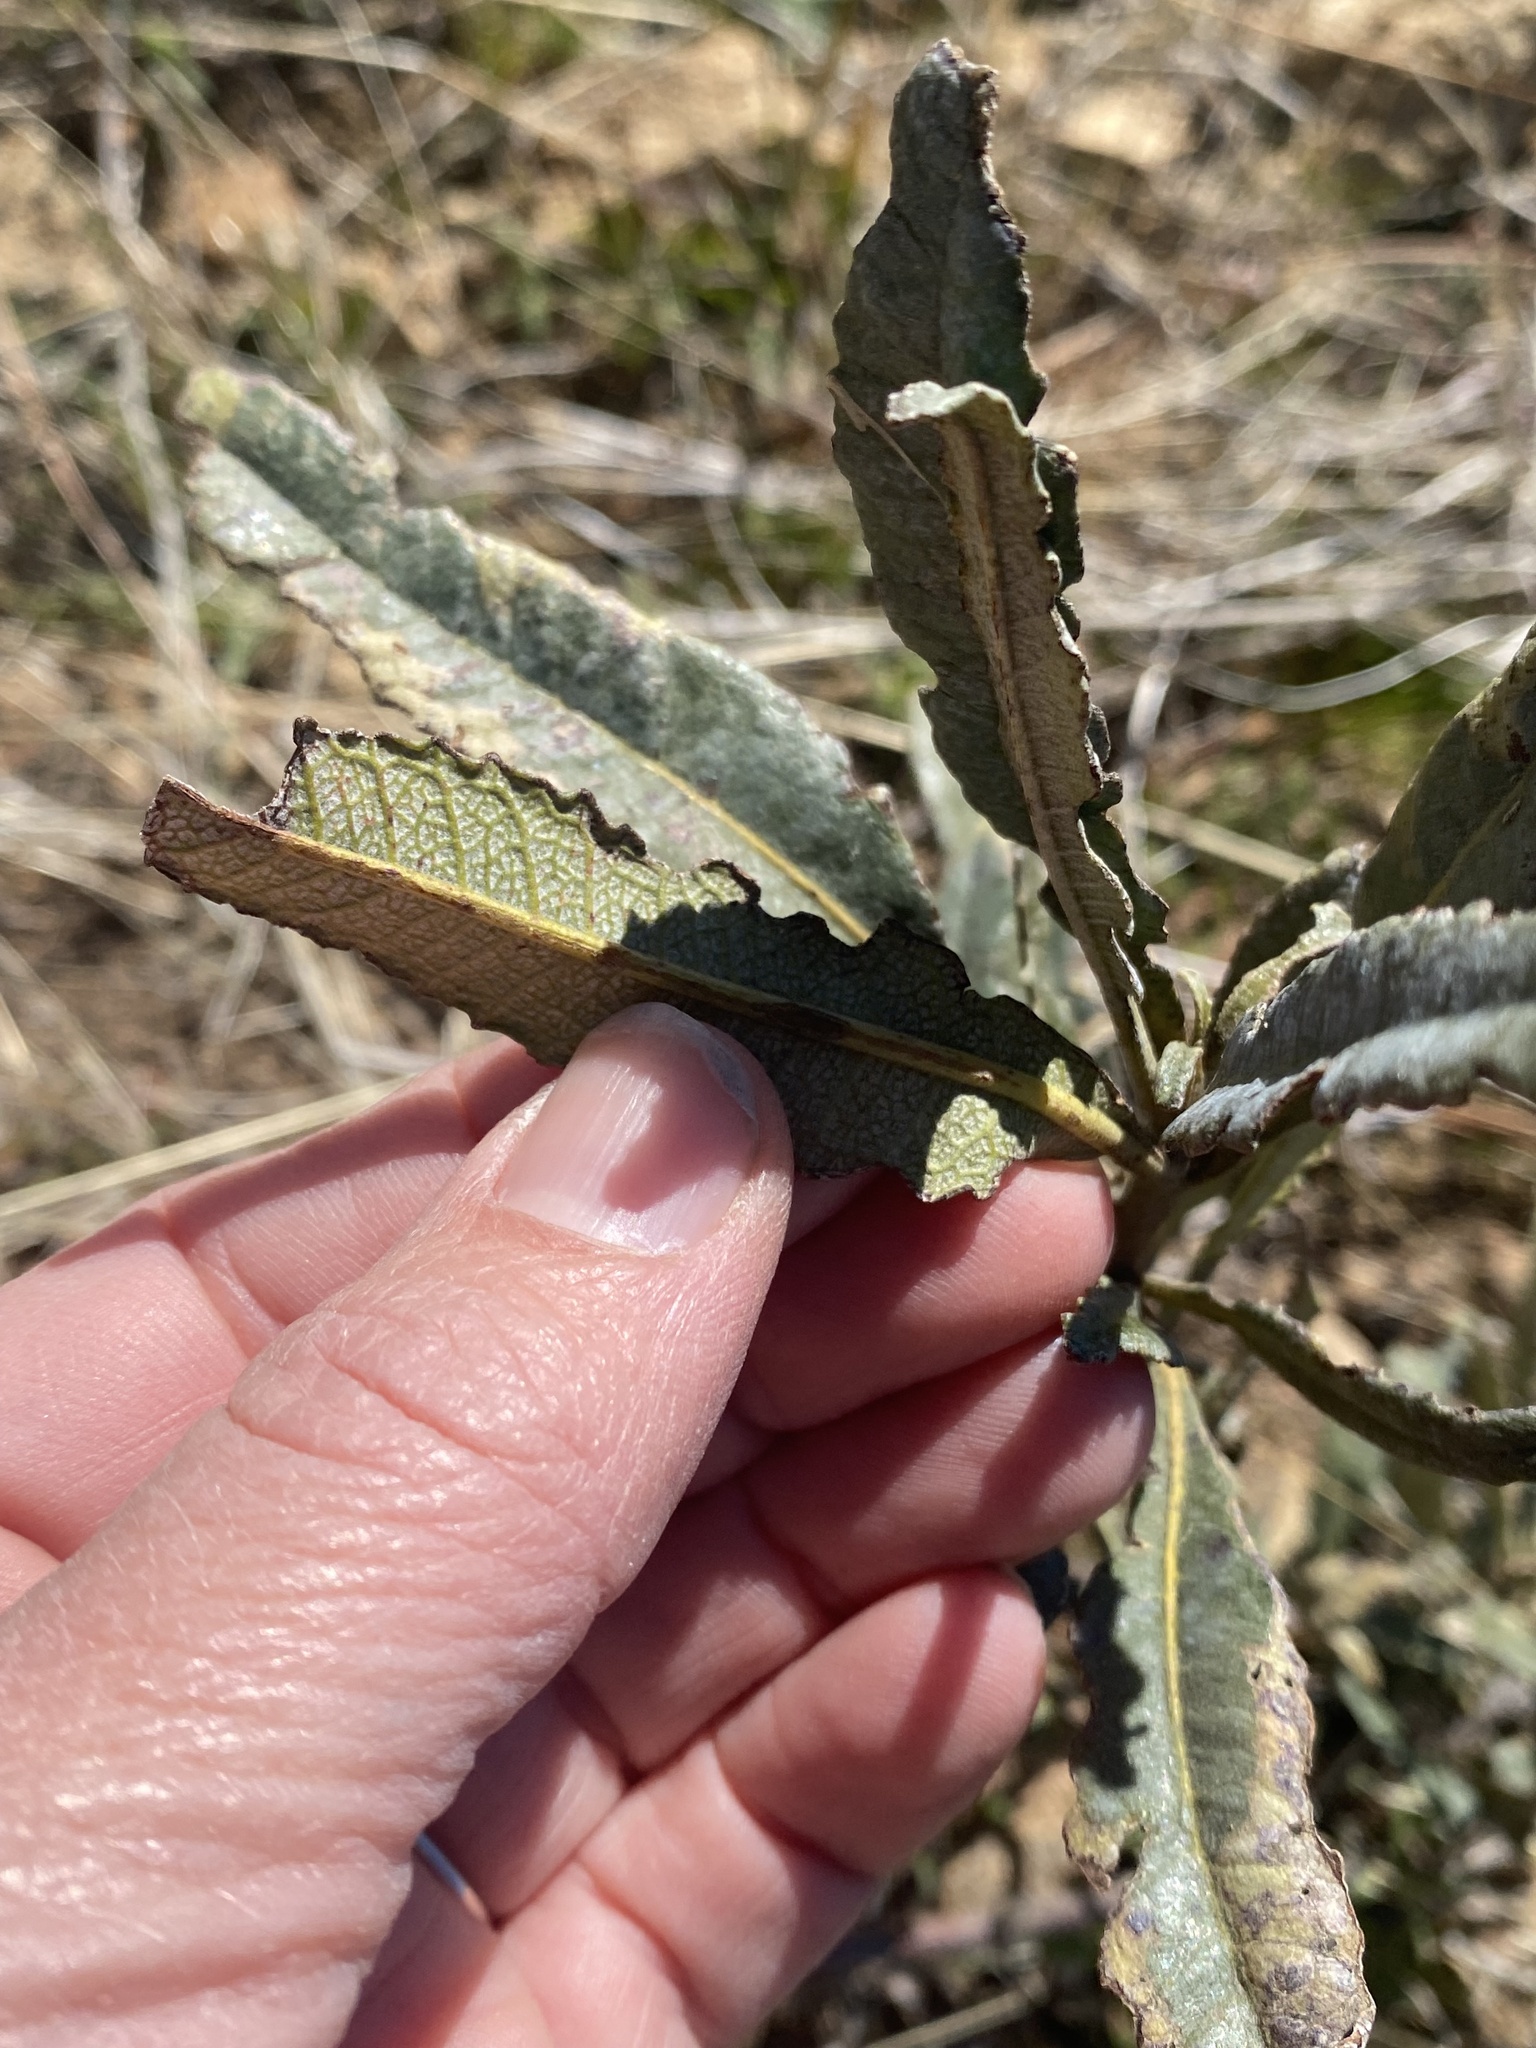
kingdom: Plantae
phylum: Tracheophyta
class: Magnoliopsida
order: Boraginales
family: Namaceae
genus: Eriodictyon
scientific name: Eriodictyon californicum
